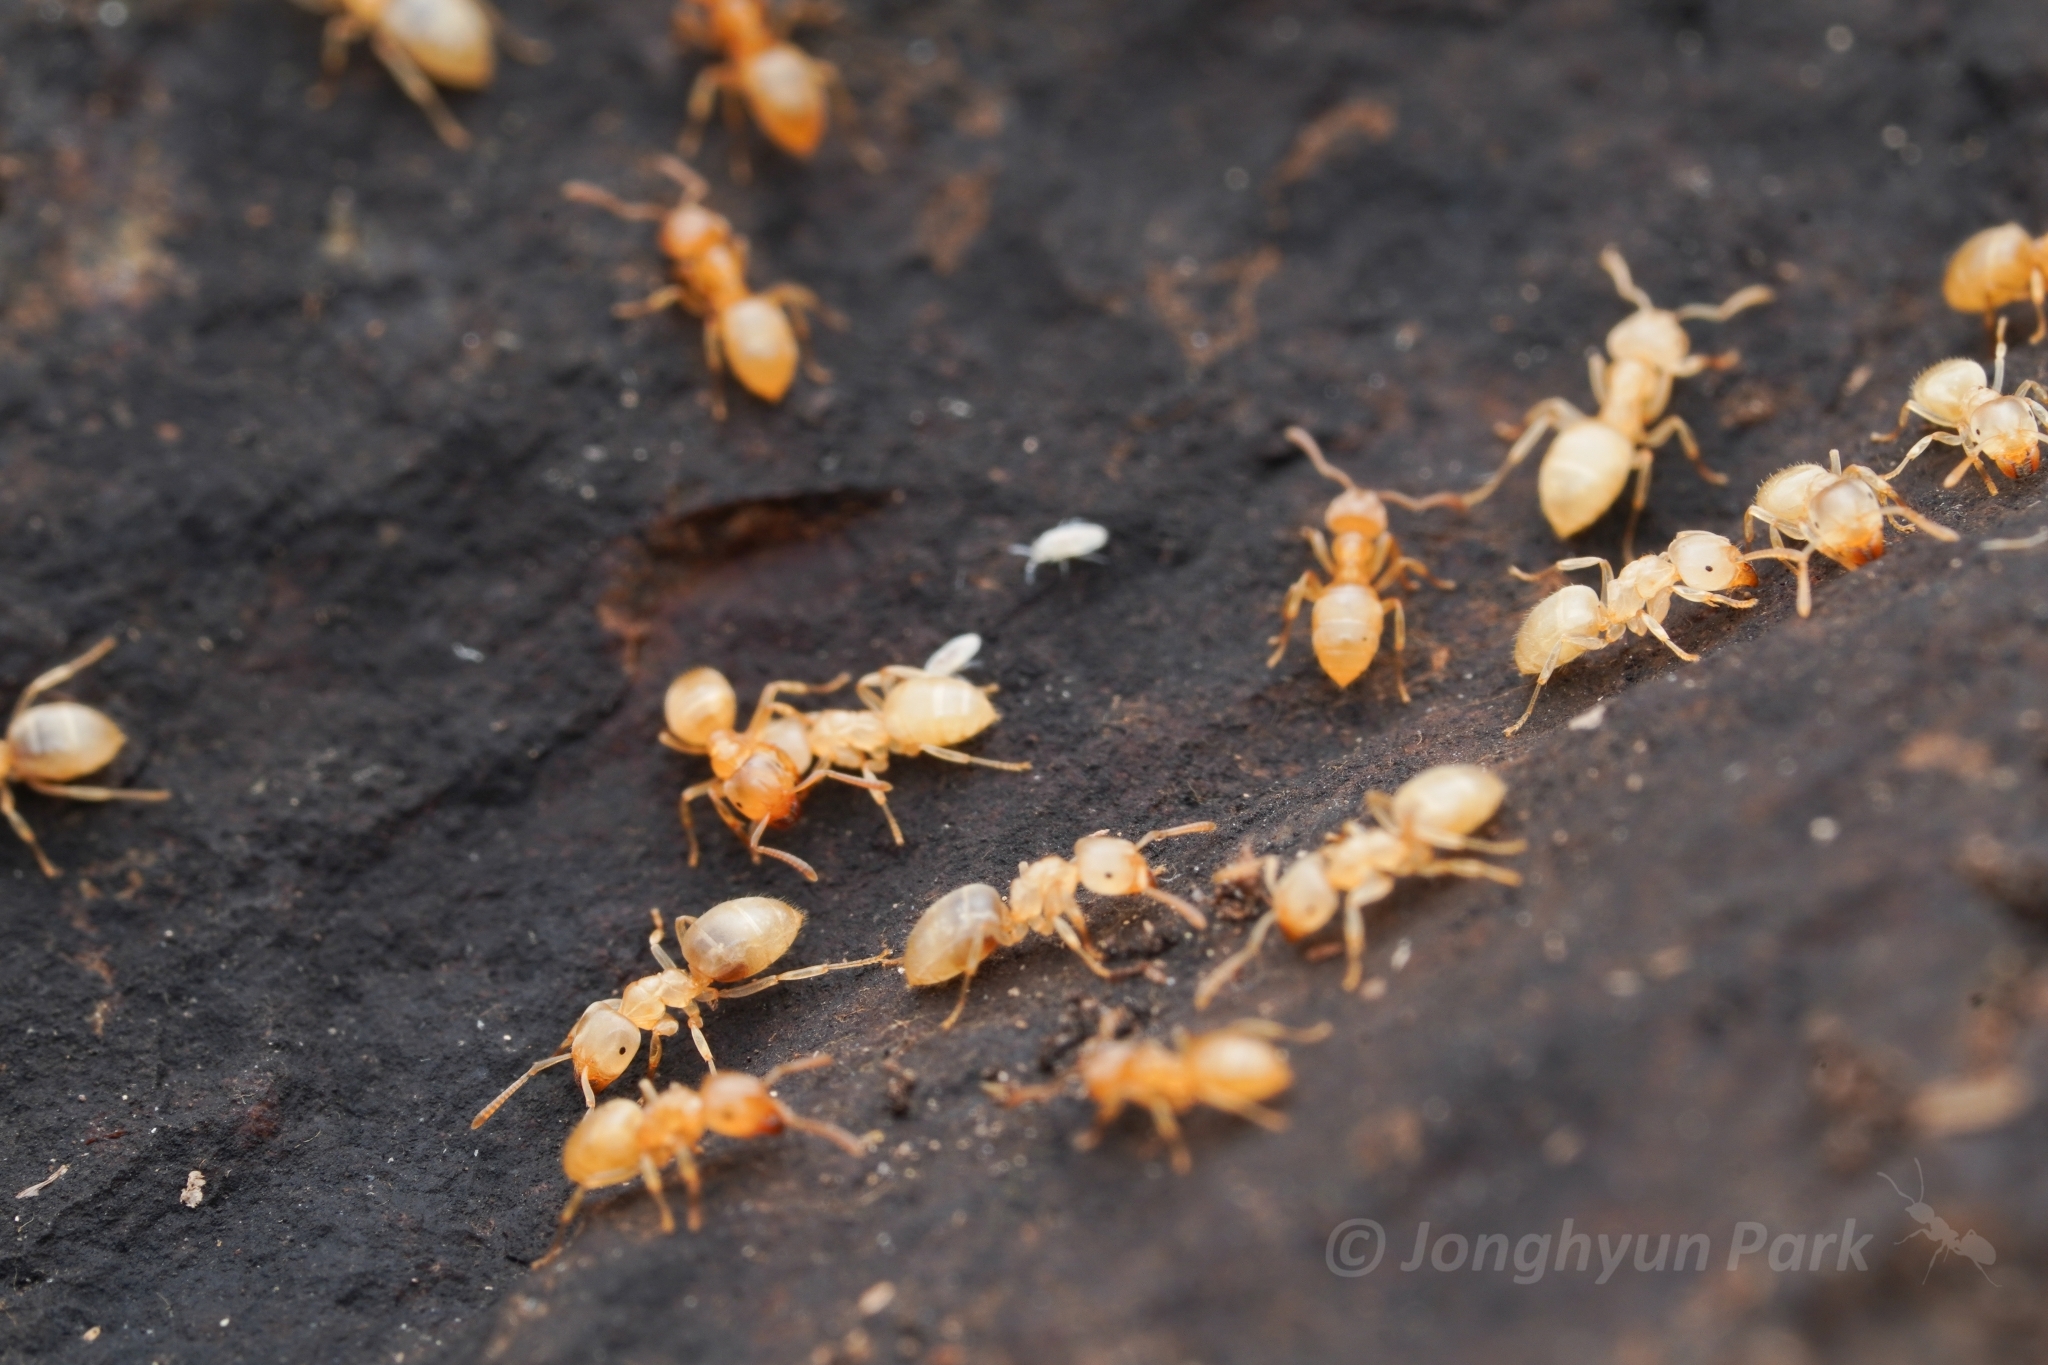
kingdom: Animalia
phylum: Arthropoda
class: Insecta
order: Hymenoptera
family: Formicidae
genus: Lasius
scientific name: Lasius nearcticus
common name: New world fuzzy ant
